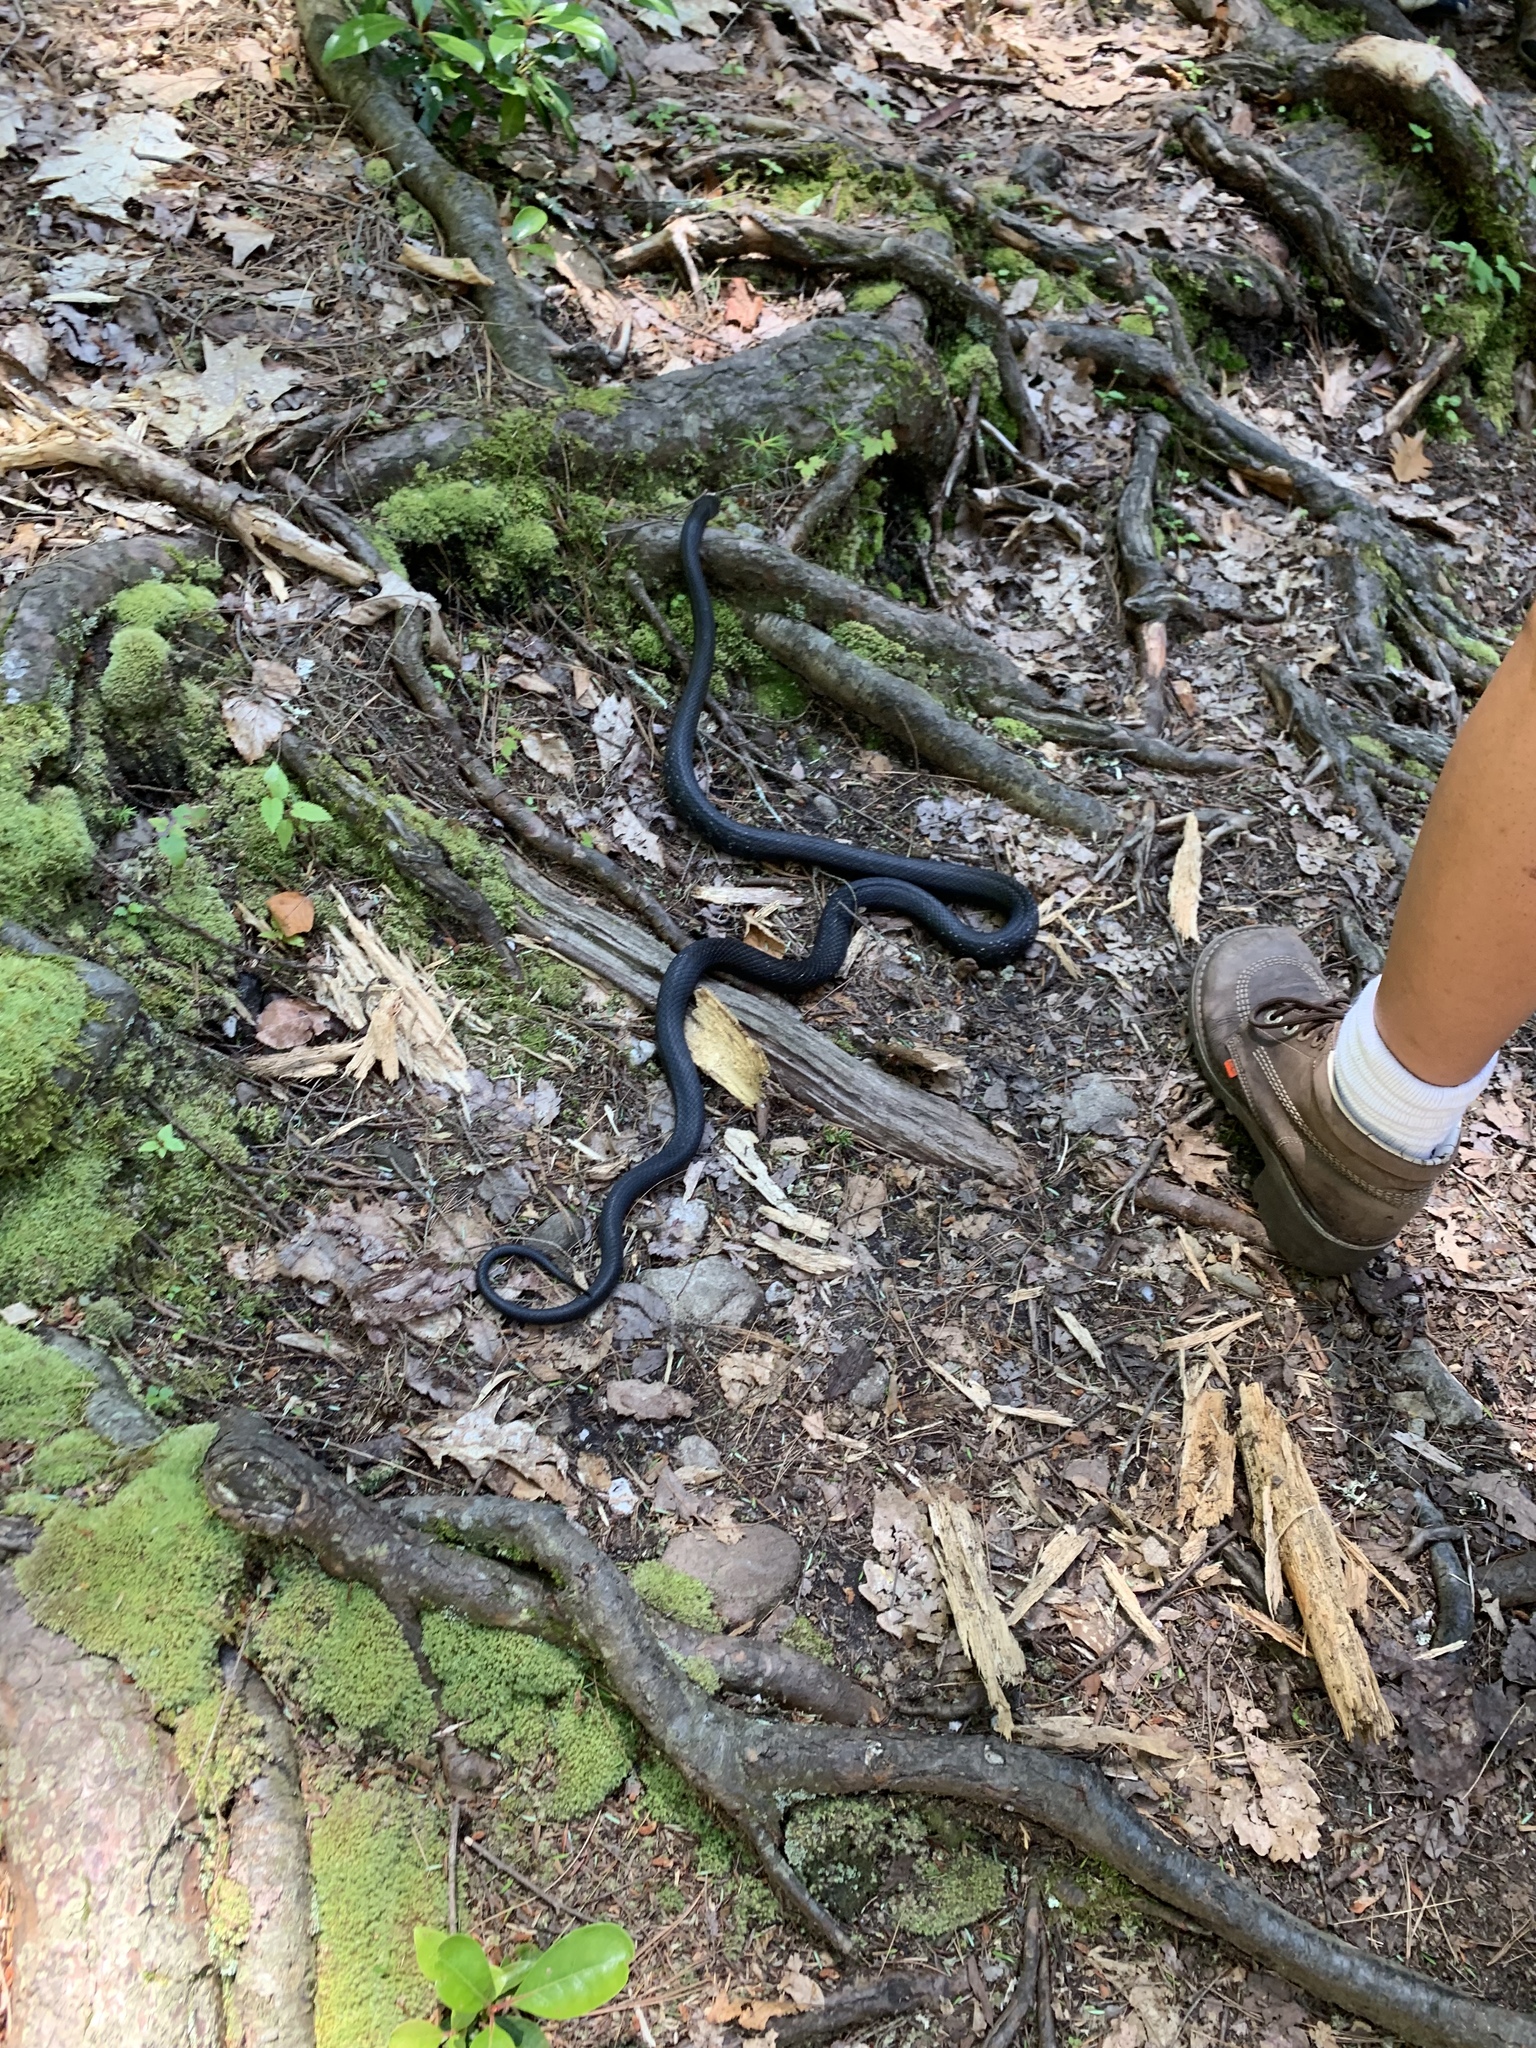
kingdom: Animalia
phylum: Chordata
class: Squamata
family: Colubridae
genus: Pantherophis
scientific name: Pantherophis alleghaniensis
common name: Eastern rat snake
